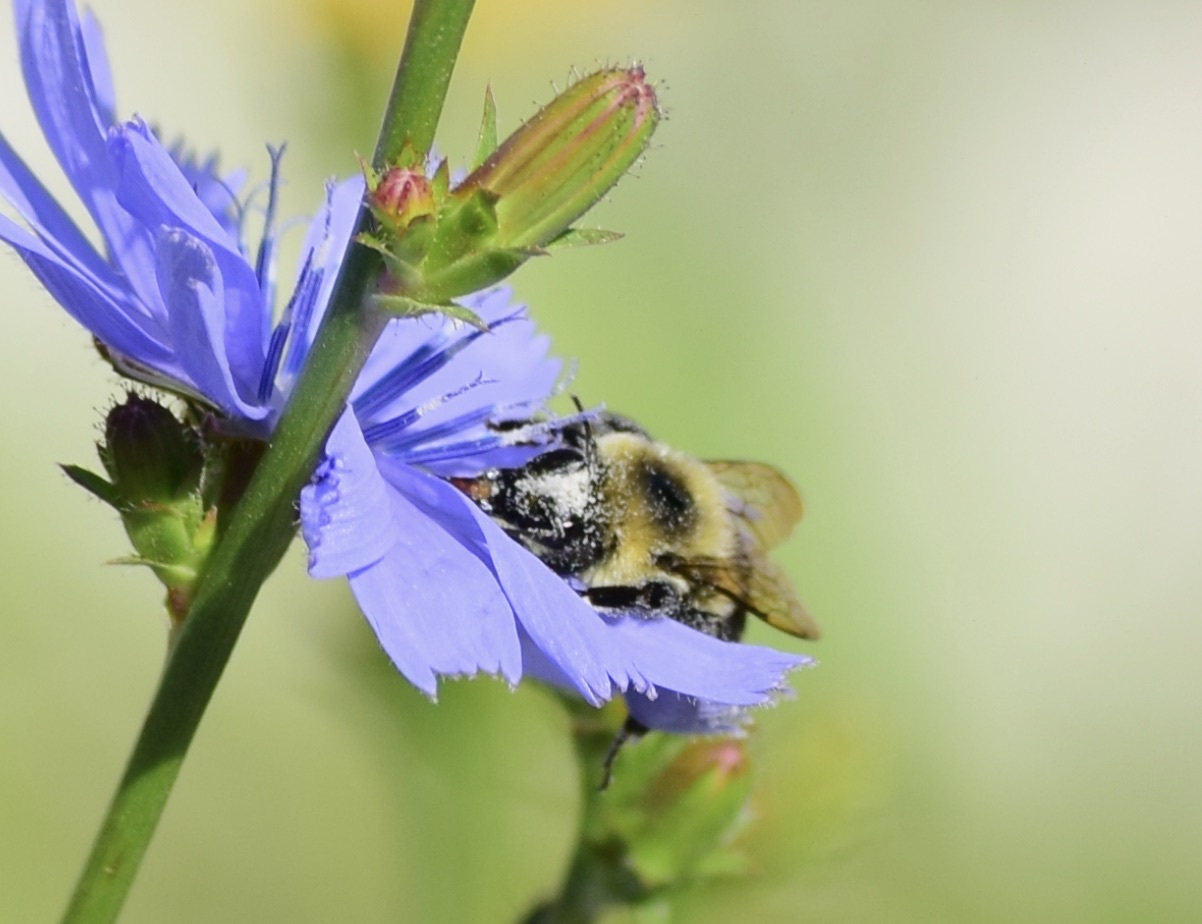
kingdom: Animalia
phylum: Arthropoda
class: Insecta
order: Hymenoptera
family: Apidae
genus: Bombus
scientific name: Bombus impatiens
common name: Common eastern bumble bee
